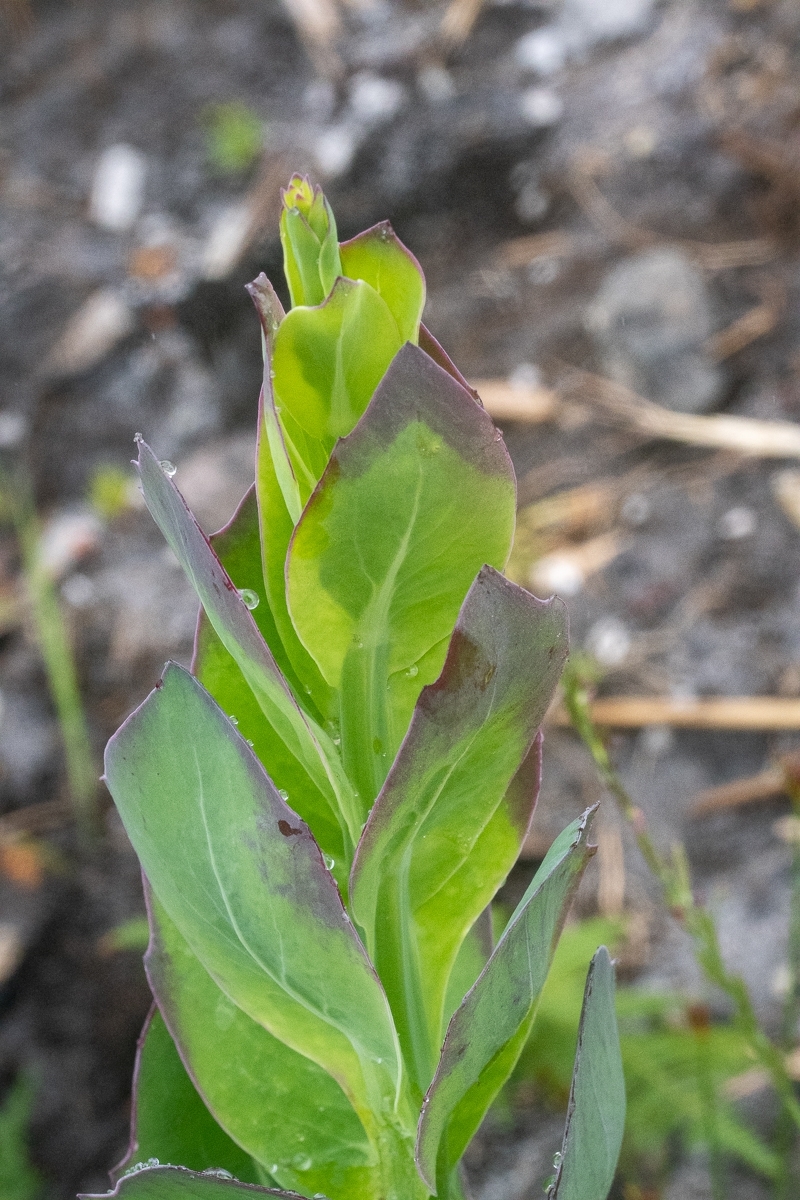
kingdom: Plantae
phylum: Tracheophyta
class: Magnoliopsida
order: Asterales
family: Asteraceae
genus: Othonna
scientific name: Othonna quinquedentata
